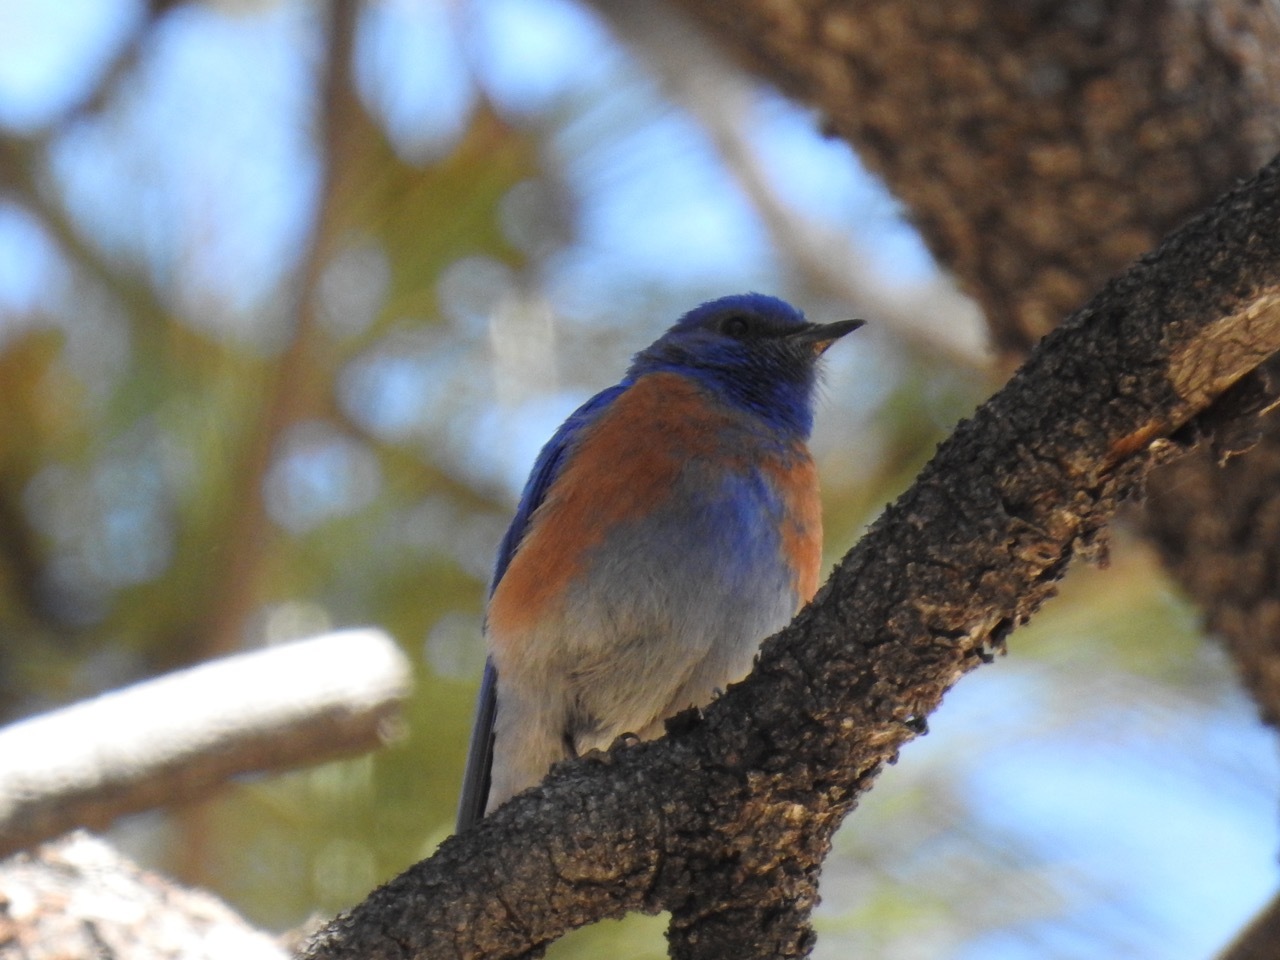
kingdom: Animalia
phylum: Chordata
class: Aves
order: Passeriformes
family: Turdidae
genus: Sialia
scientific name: Sialia mexicana
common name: Western bluebird
